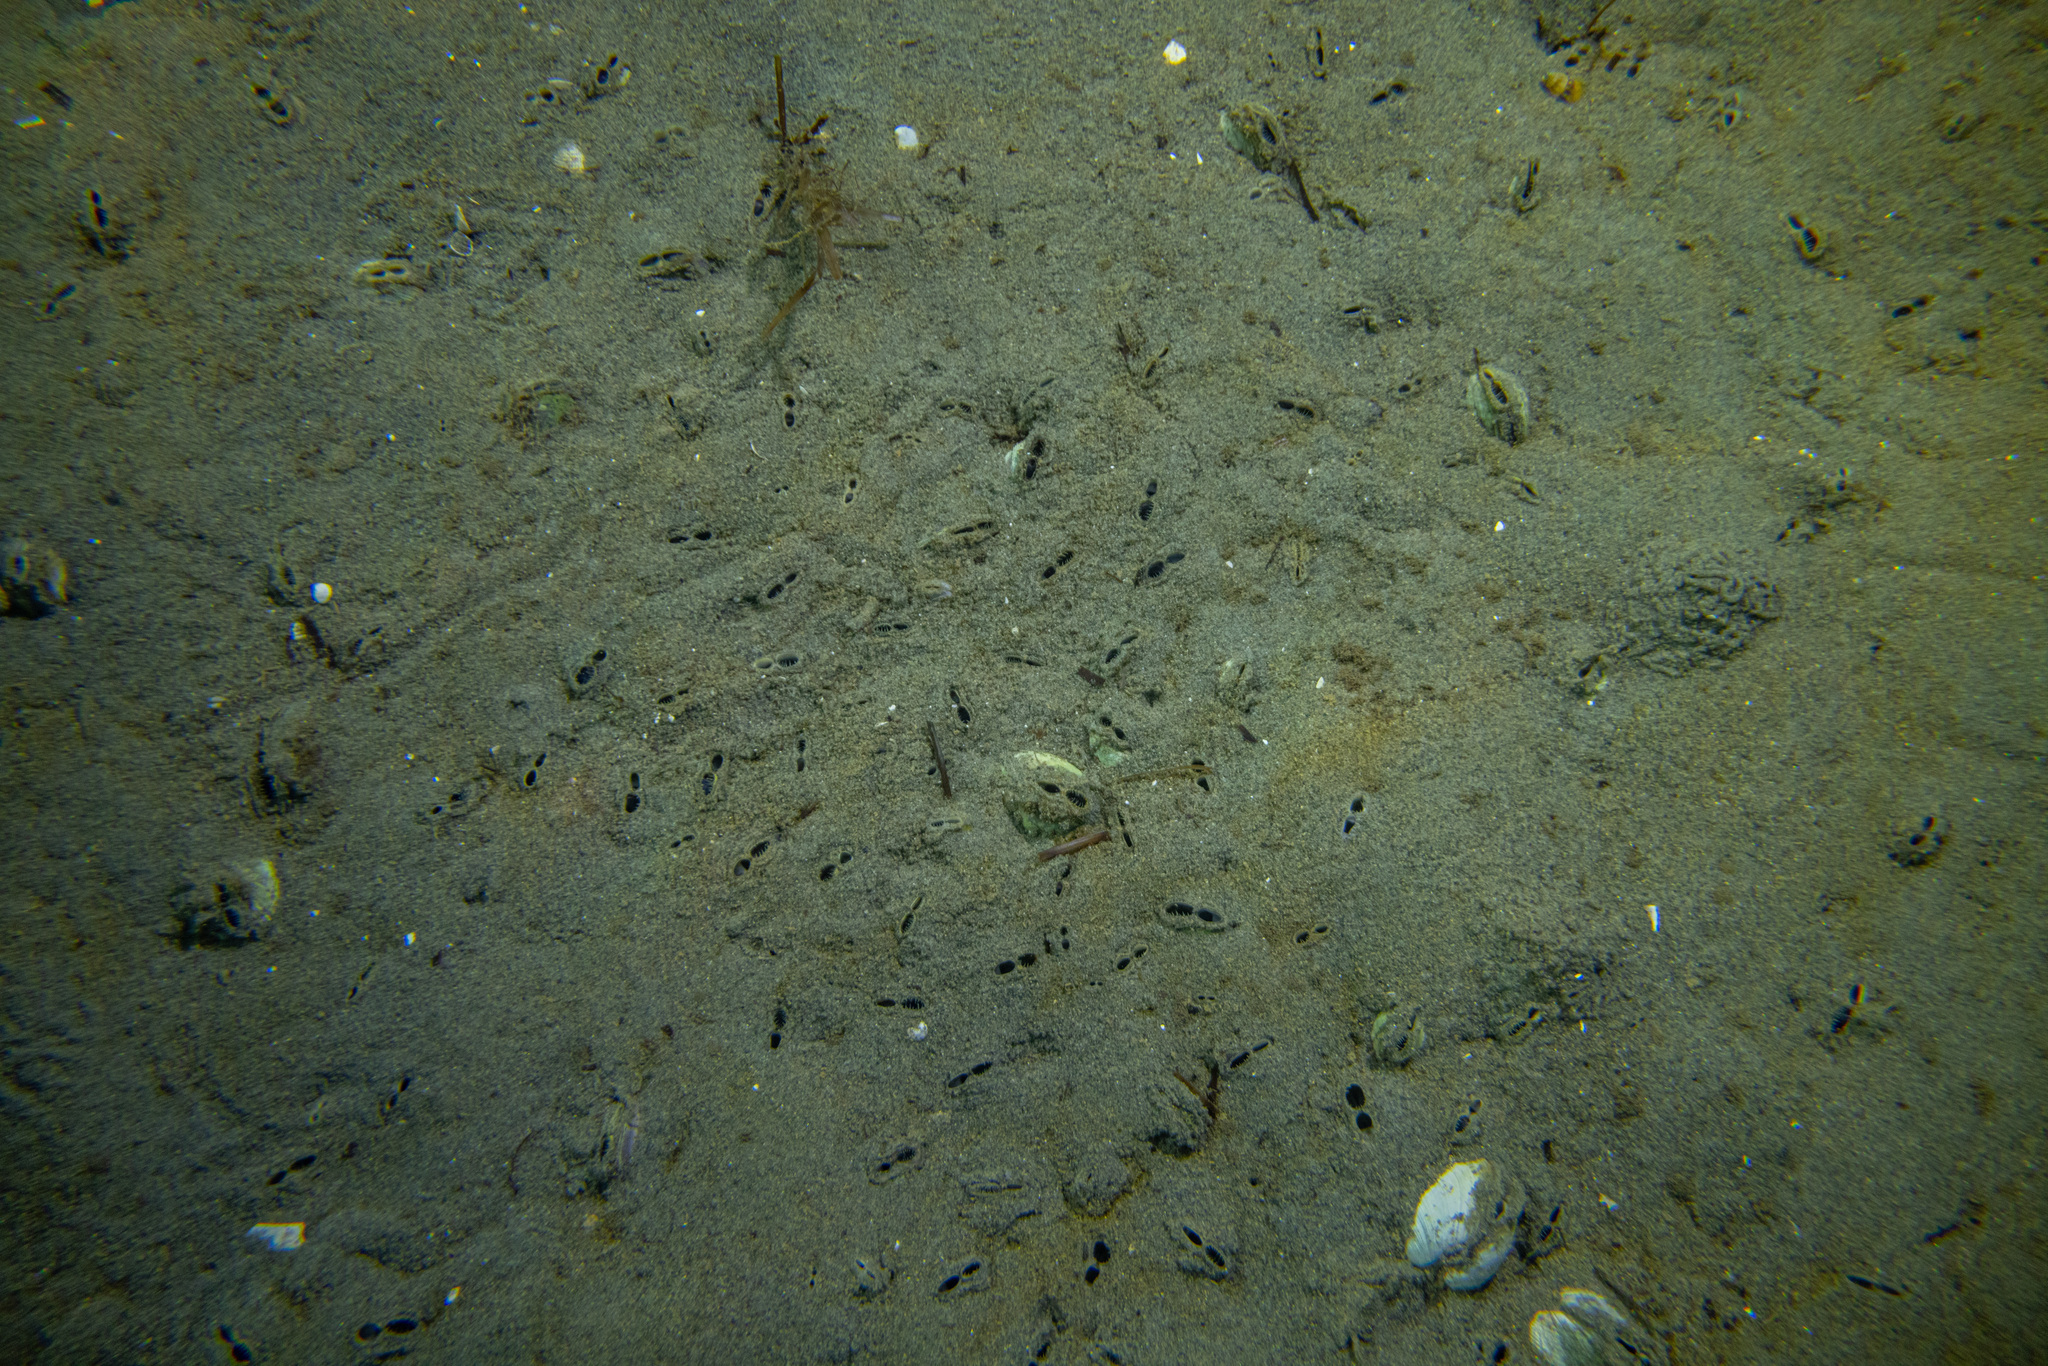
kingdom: Animalia
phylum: Mollusca
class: Bivalvia
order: Venerida
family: Veneridae
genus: Austrovenus
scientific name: Austrovenus stutchburyi
